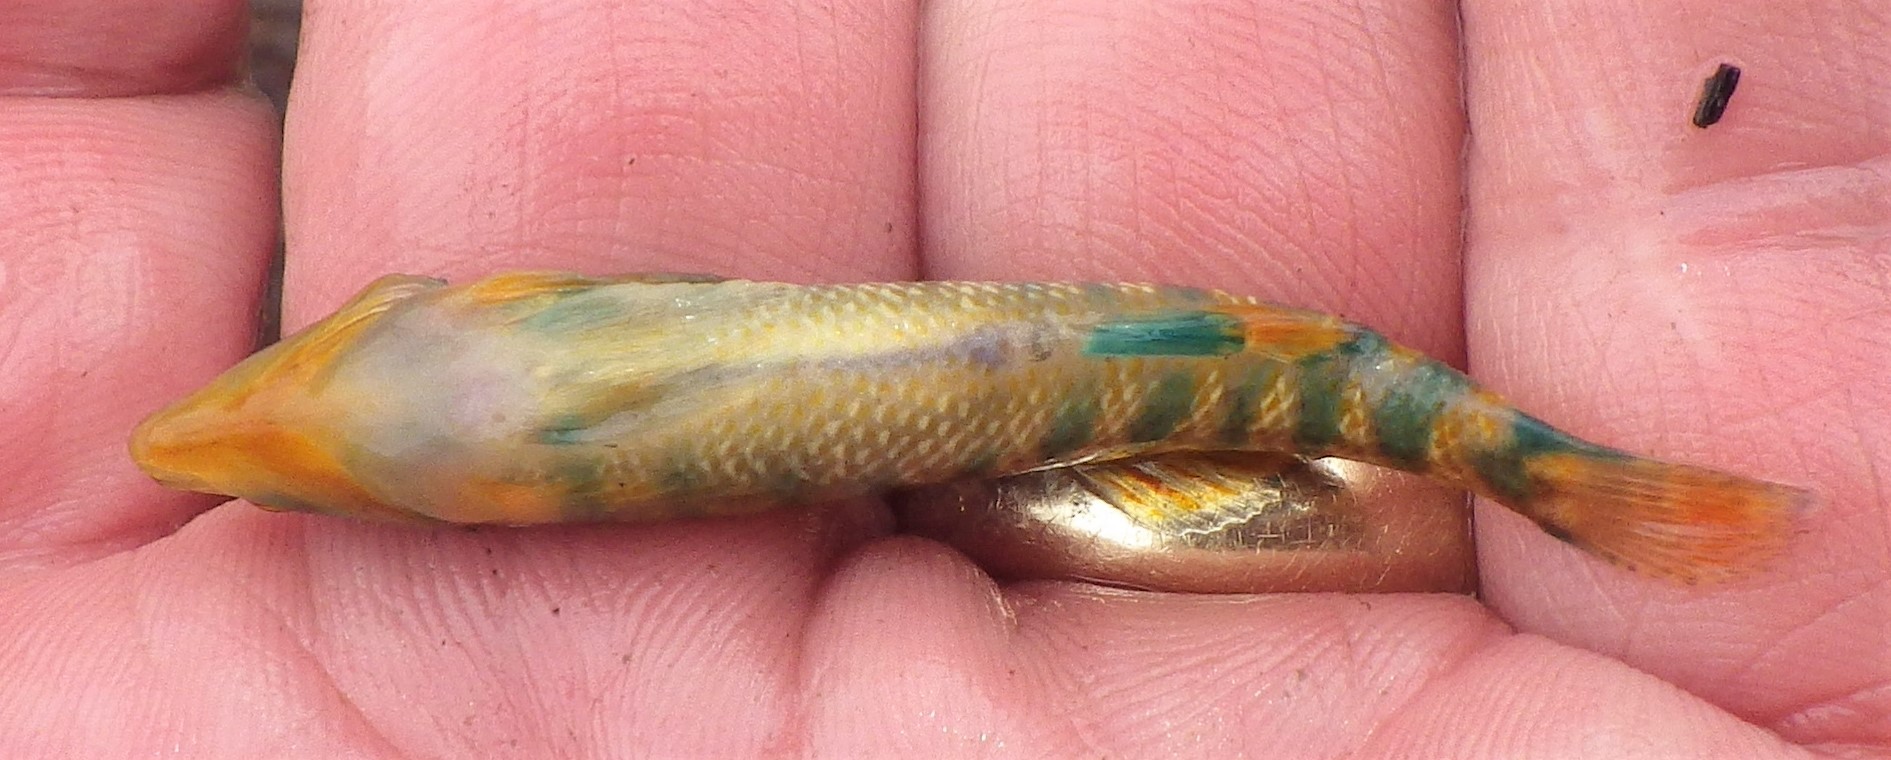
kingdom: Animalia
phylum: Chordata
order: Perciformes
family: Percidae
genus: Etheostoma
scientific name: Etheostoma caeruleum
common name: Rainbow darter
